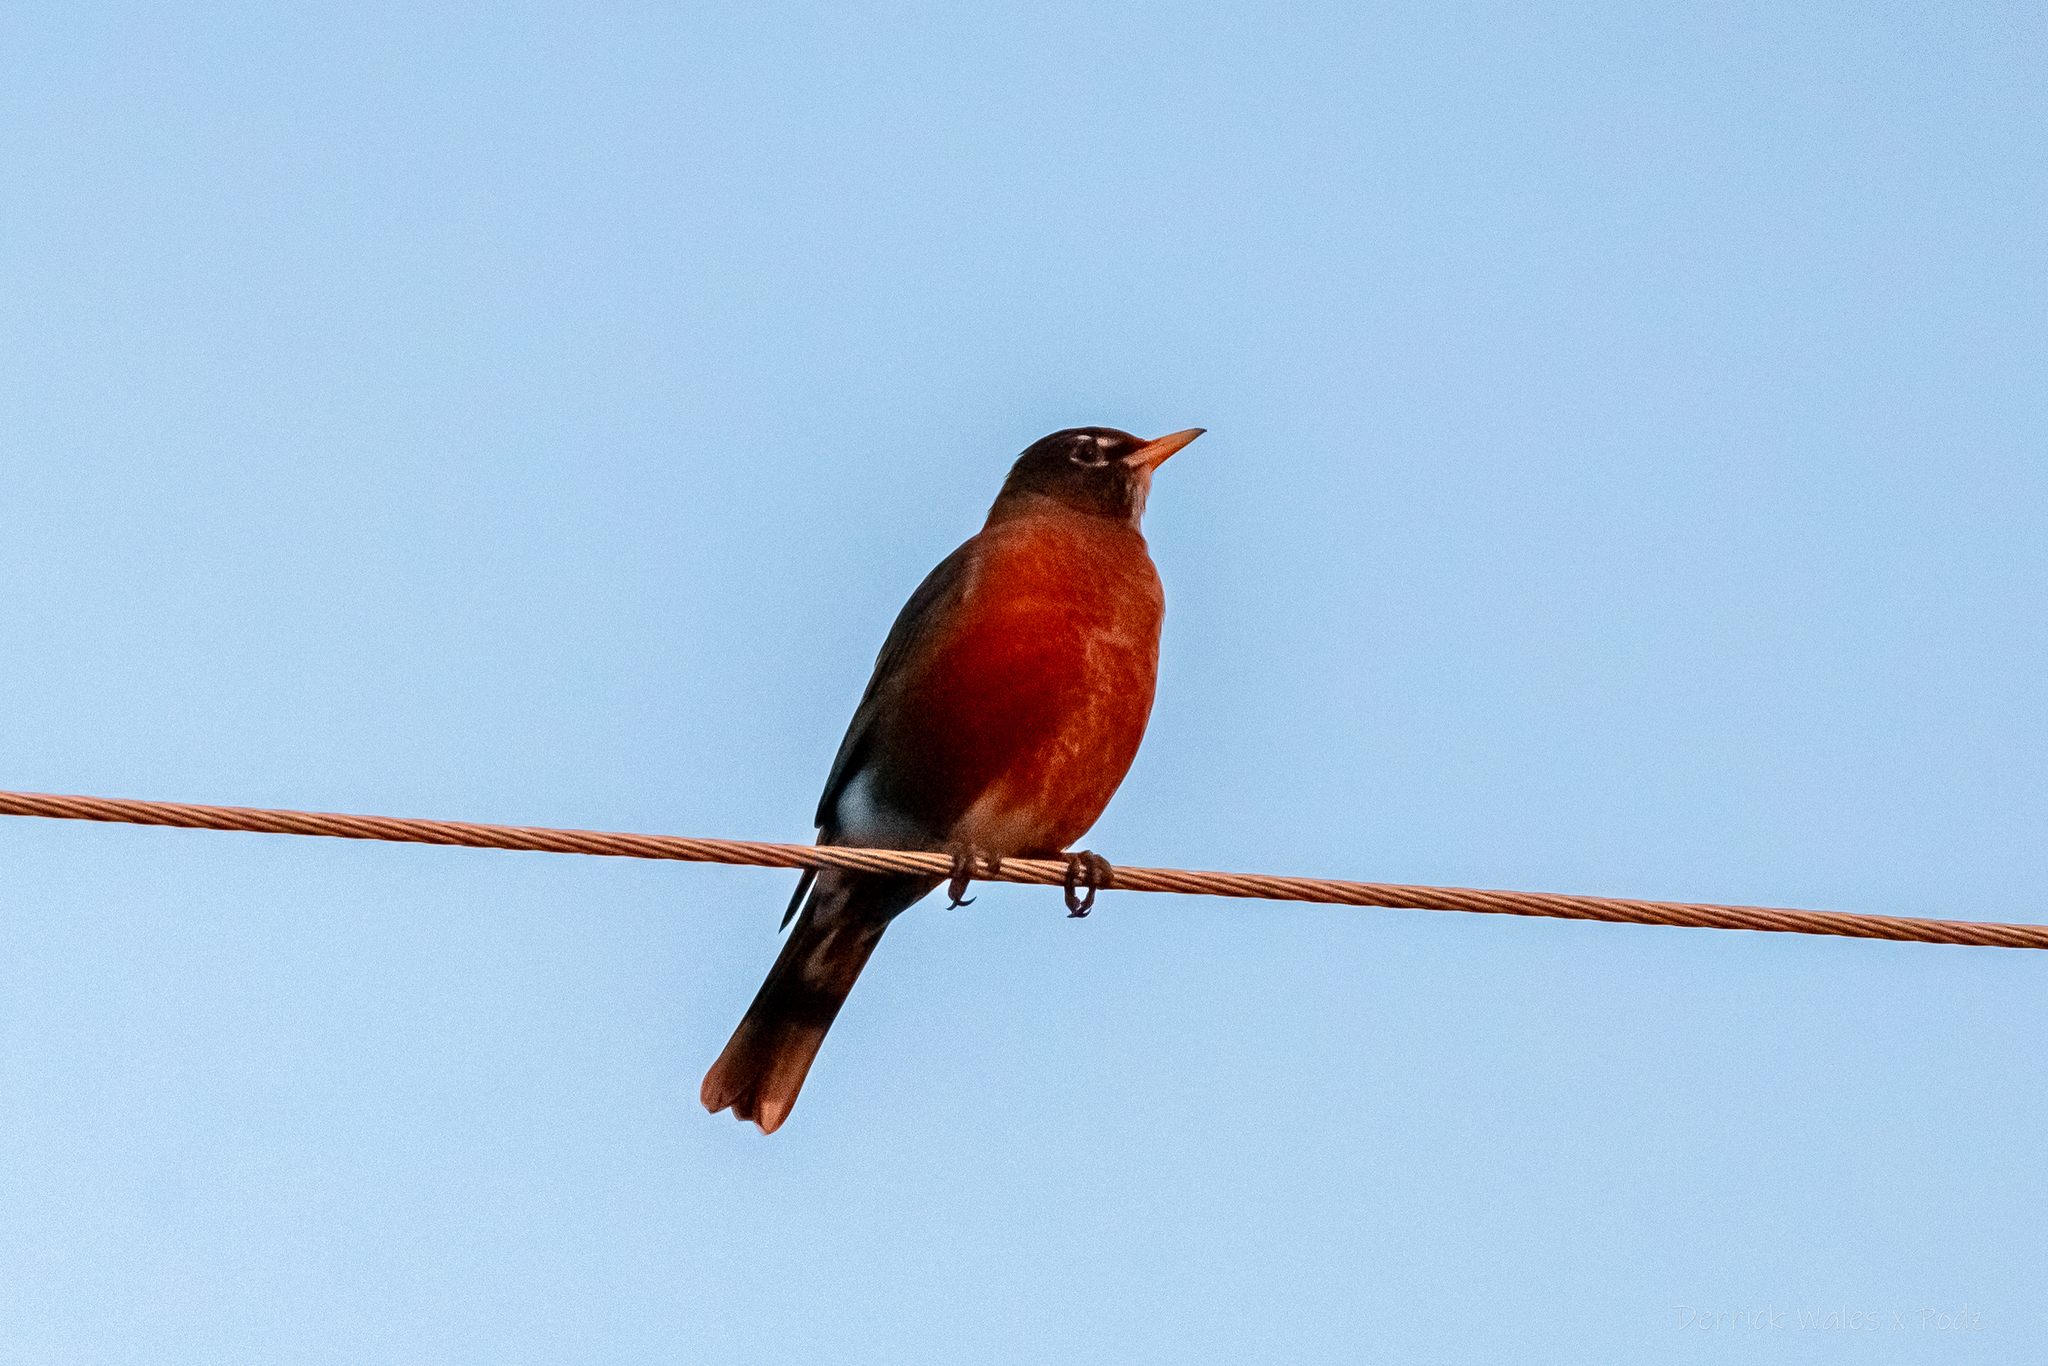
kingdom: Animalia
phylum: Chordata
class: Aves
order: Passeriformes
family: Turdidae
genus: Turdus
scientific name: Turdus migratorius
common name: American robin
